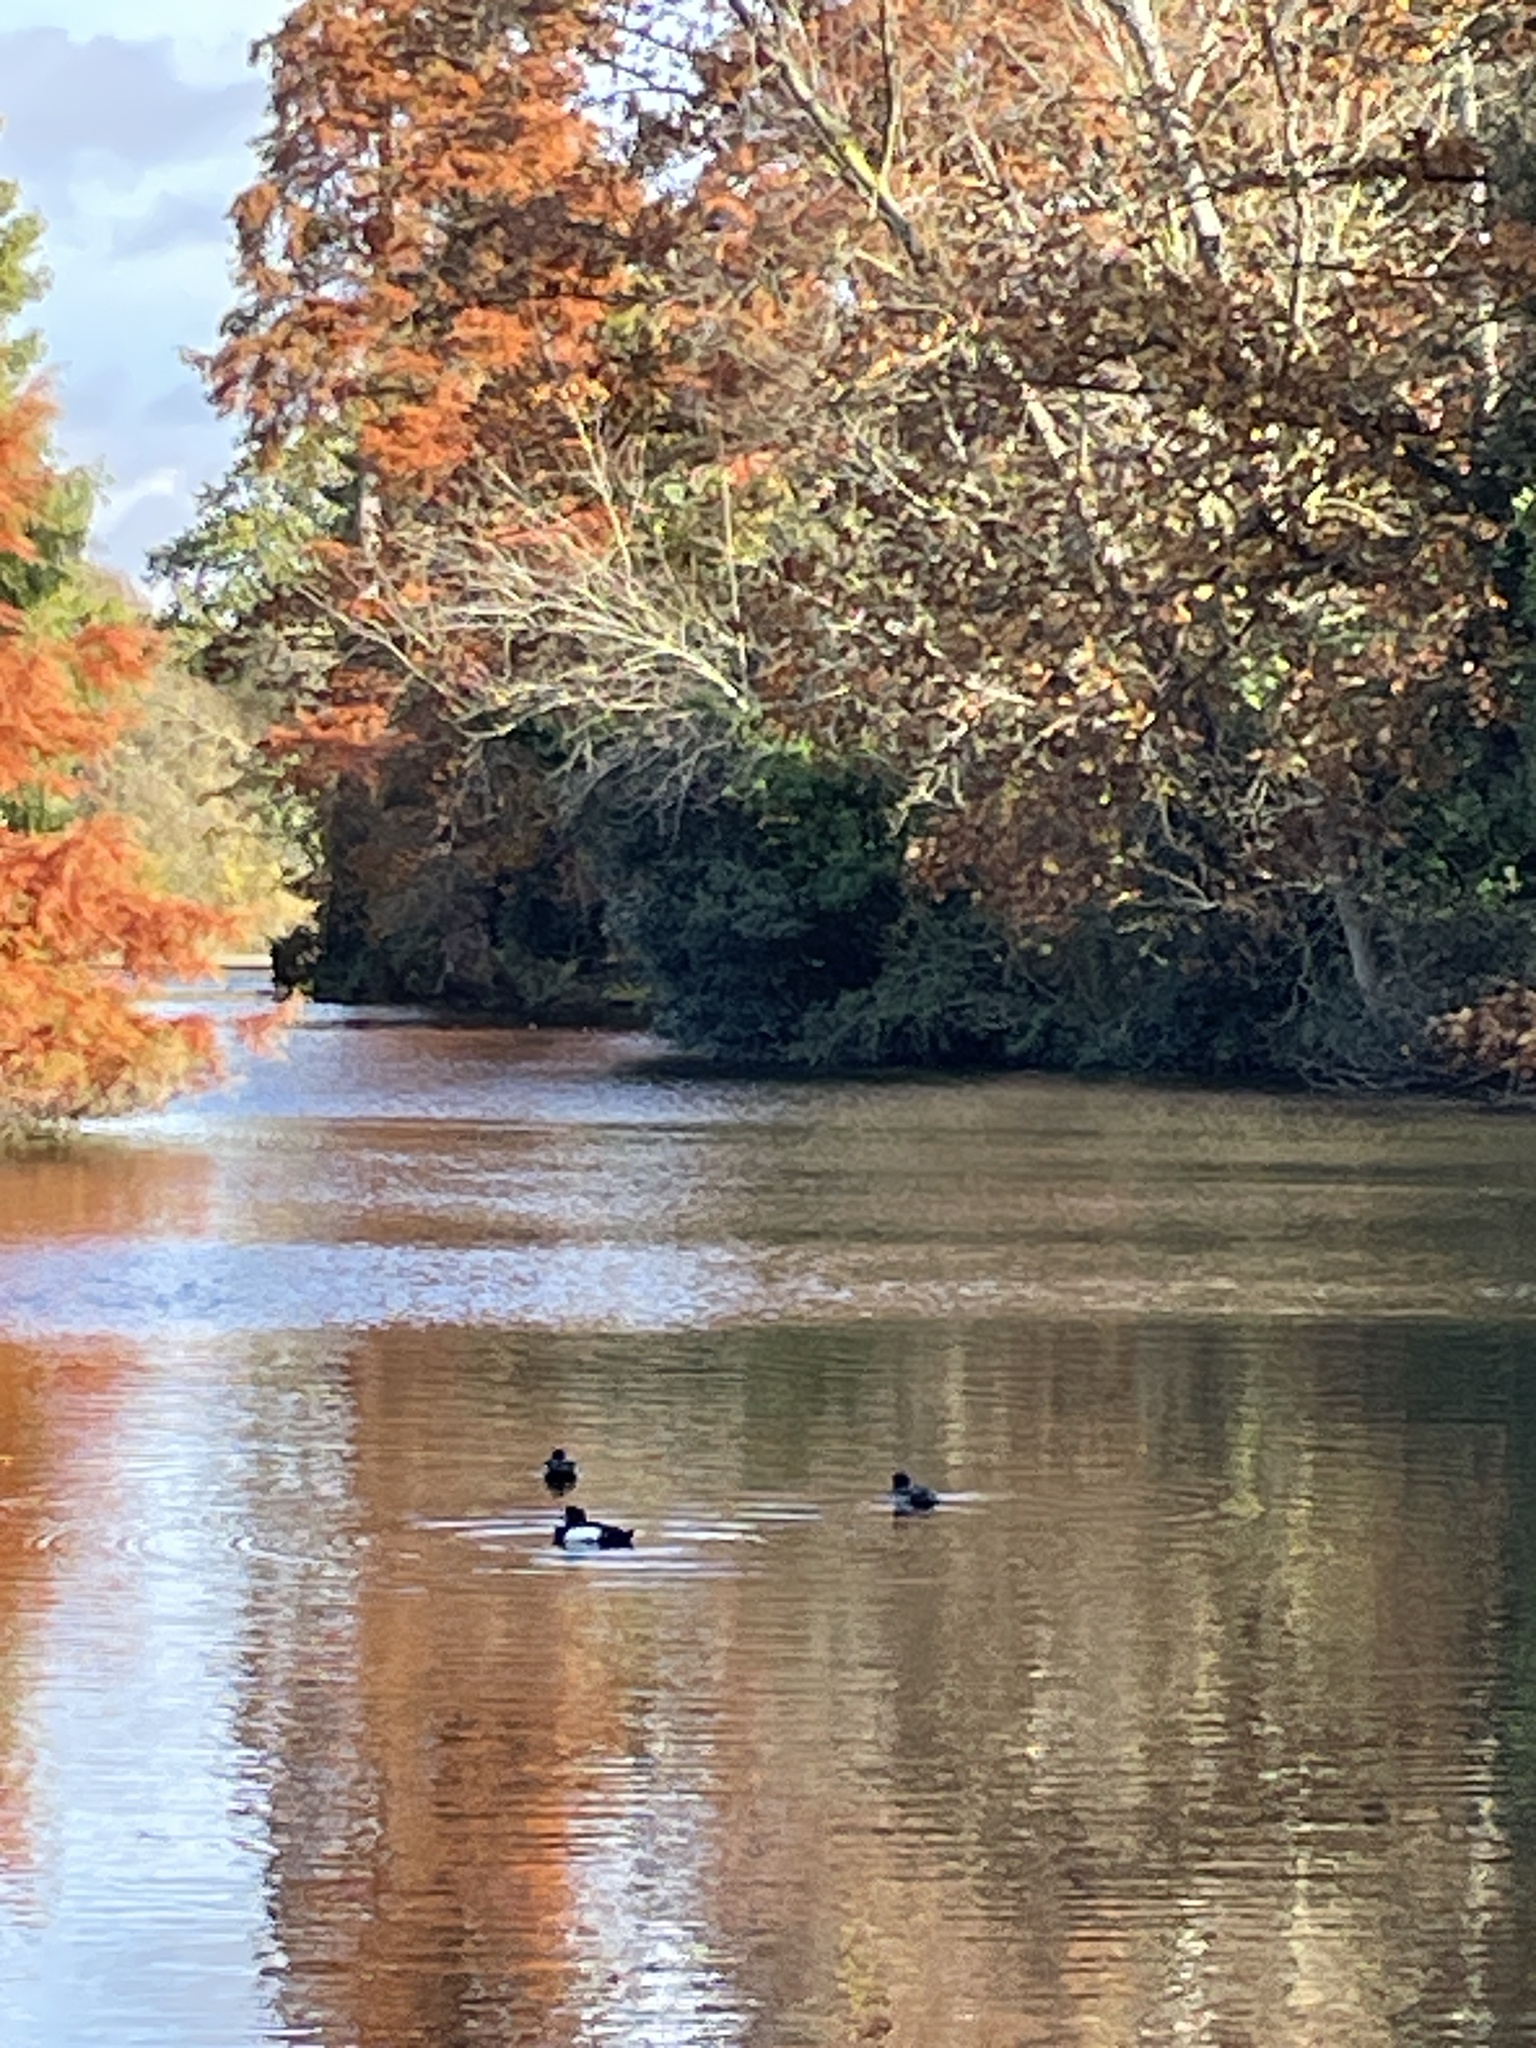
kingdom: Animalia
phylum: Chordata
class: Aves
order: Anseriformes
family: Anatidae
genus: Aythya
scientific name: Aythya fuligula
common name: Tufted duck
